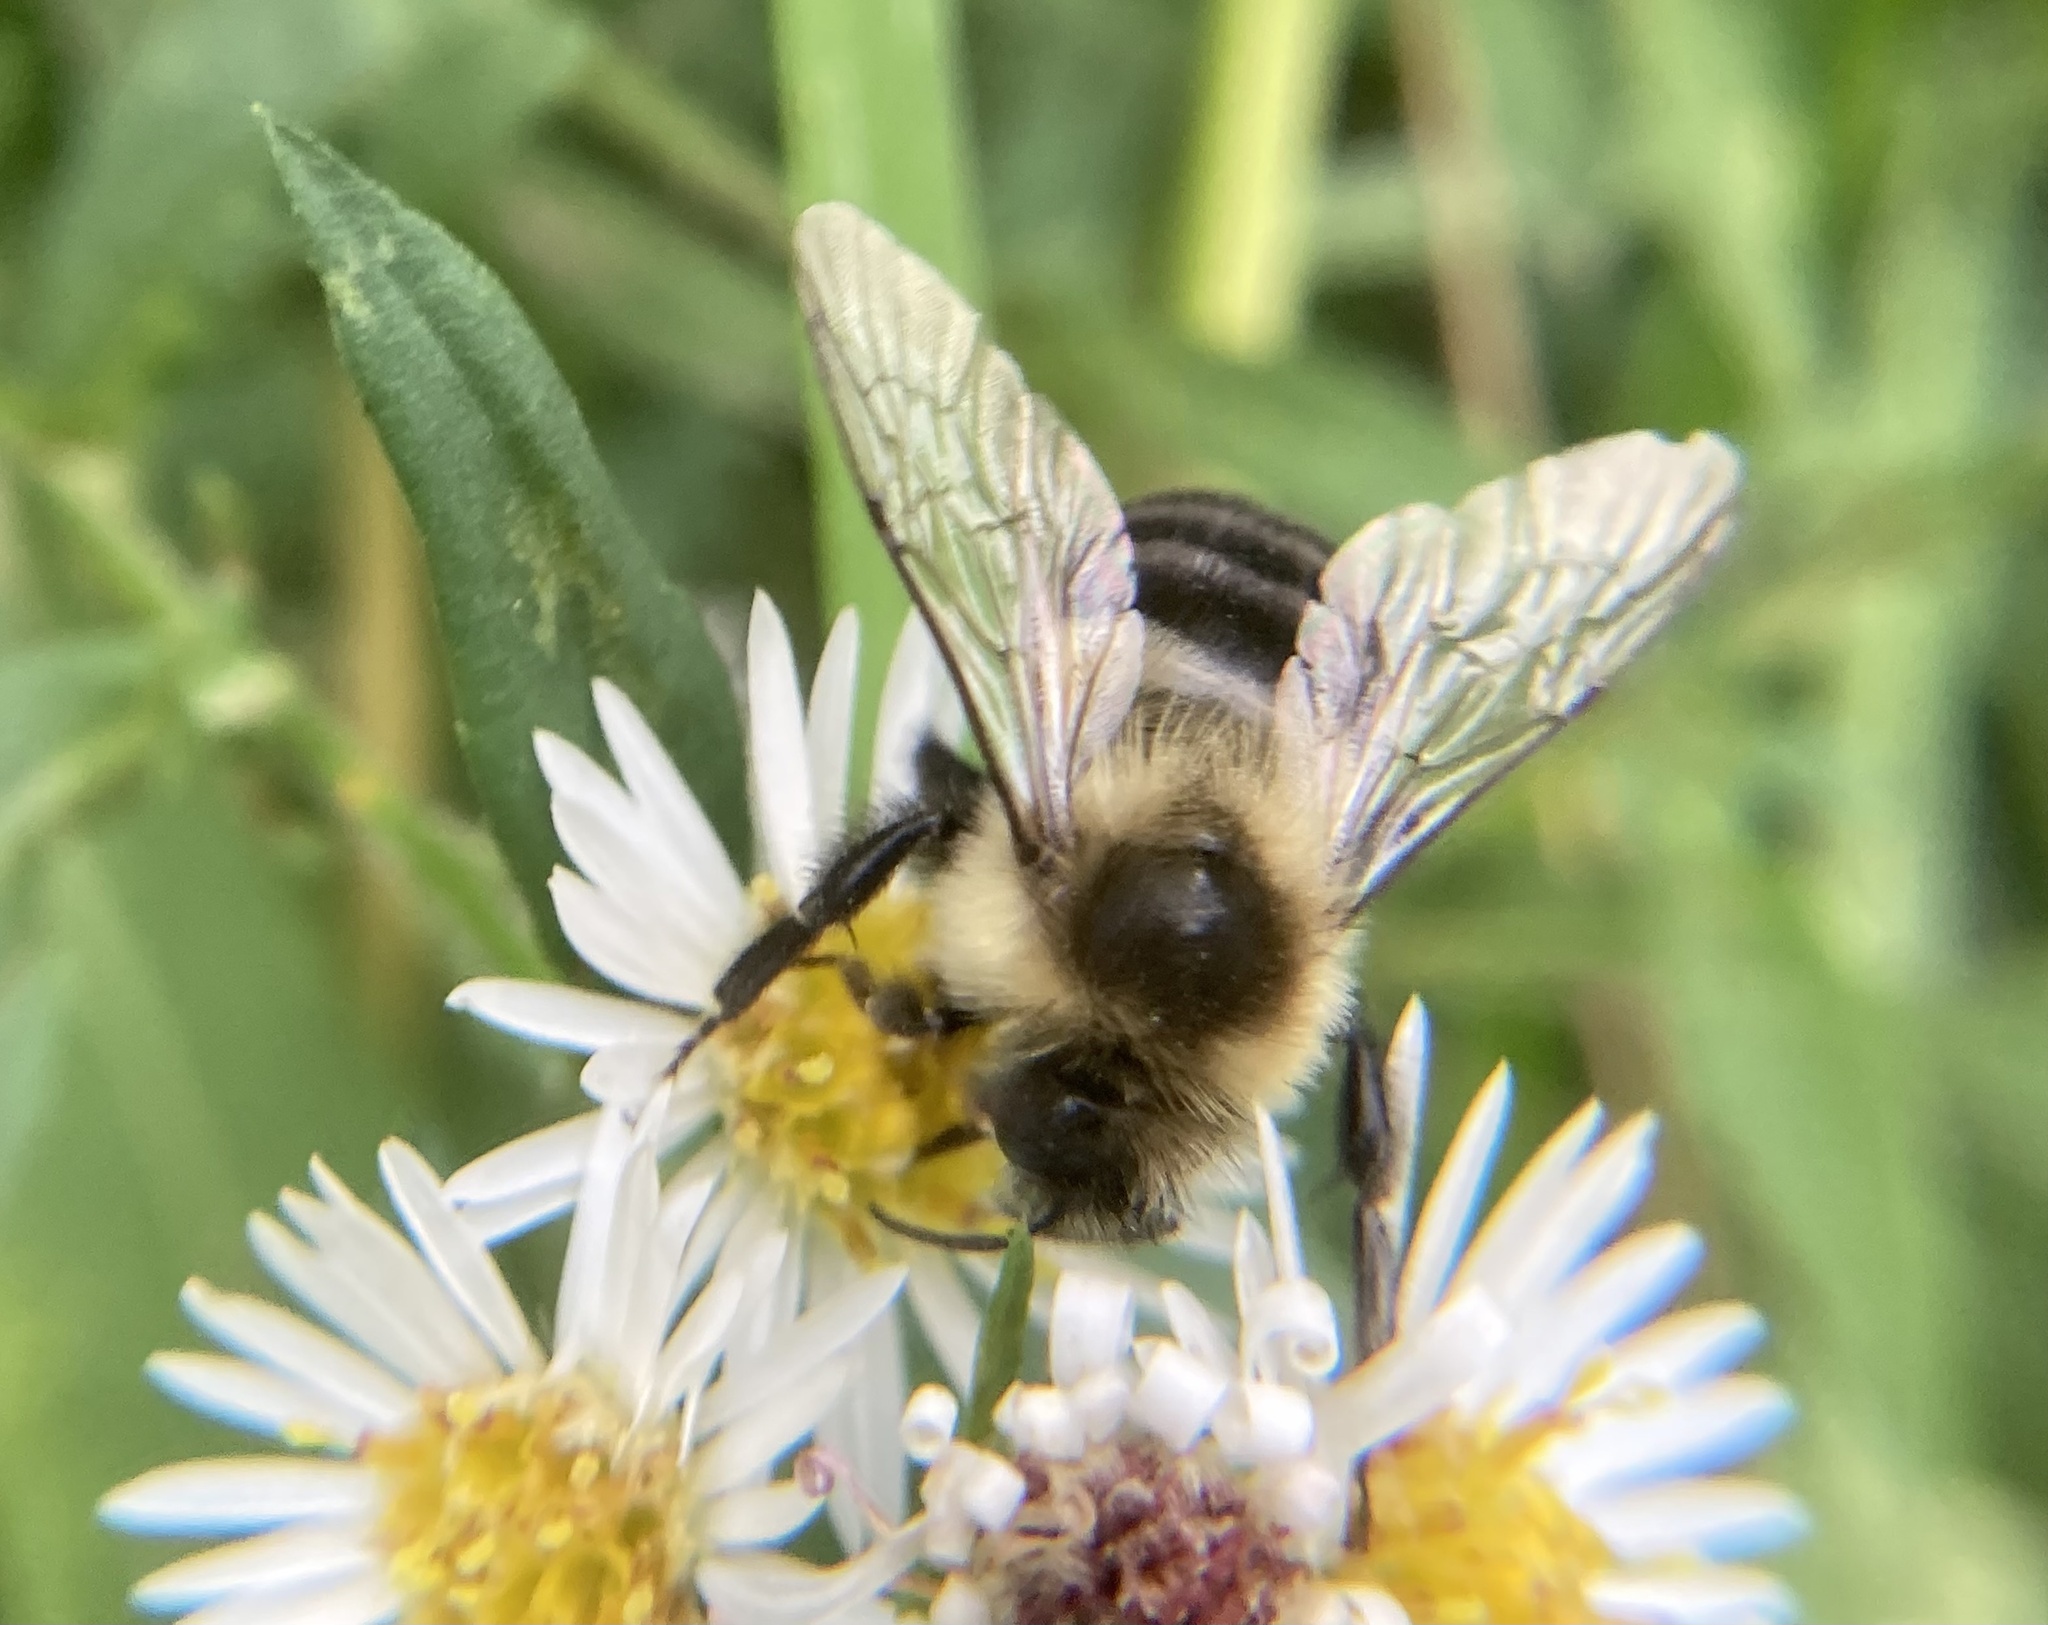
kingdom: Animalia
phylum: Arthropoda
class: Insecta
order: Hymenoptera
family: Apidae
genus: Bombus
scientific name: Bombus impatiens
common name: Common eastern bumble bee
